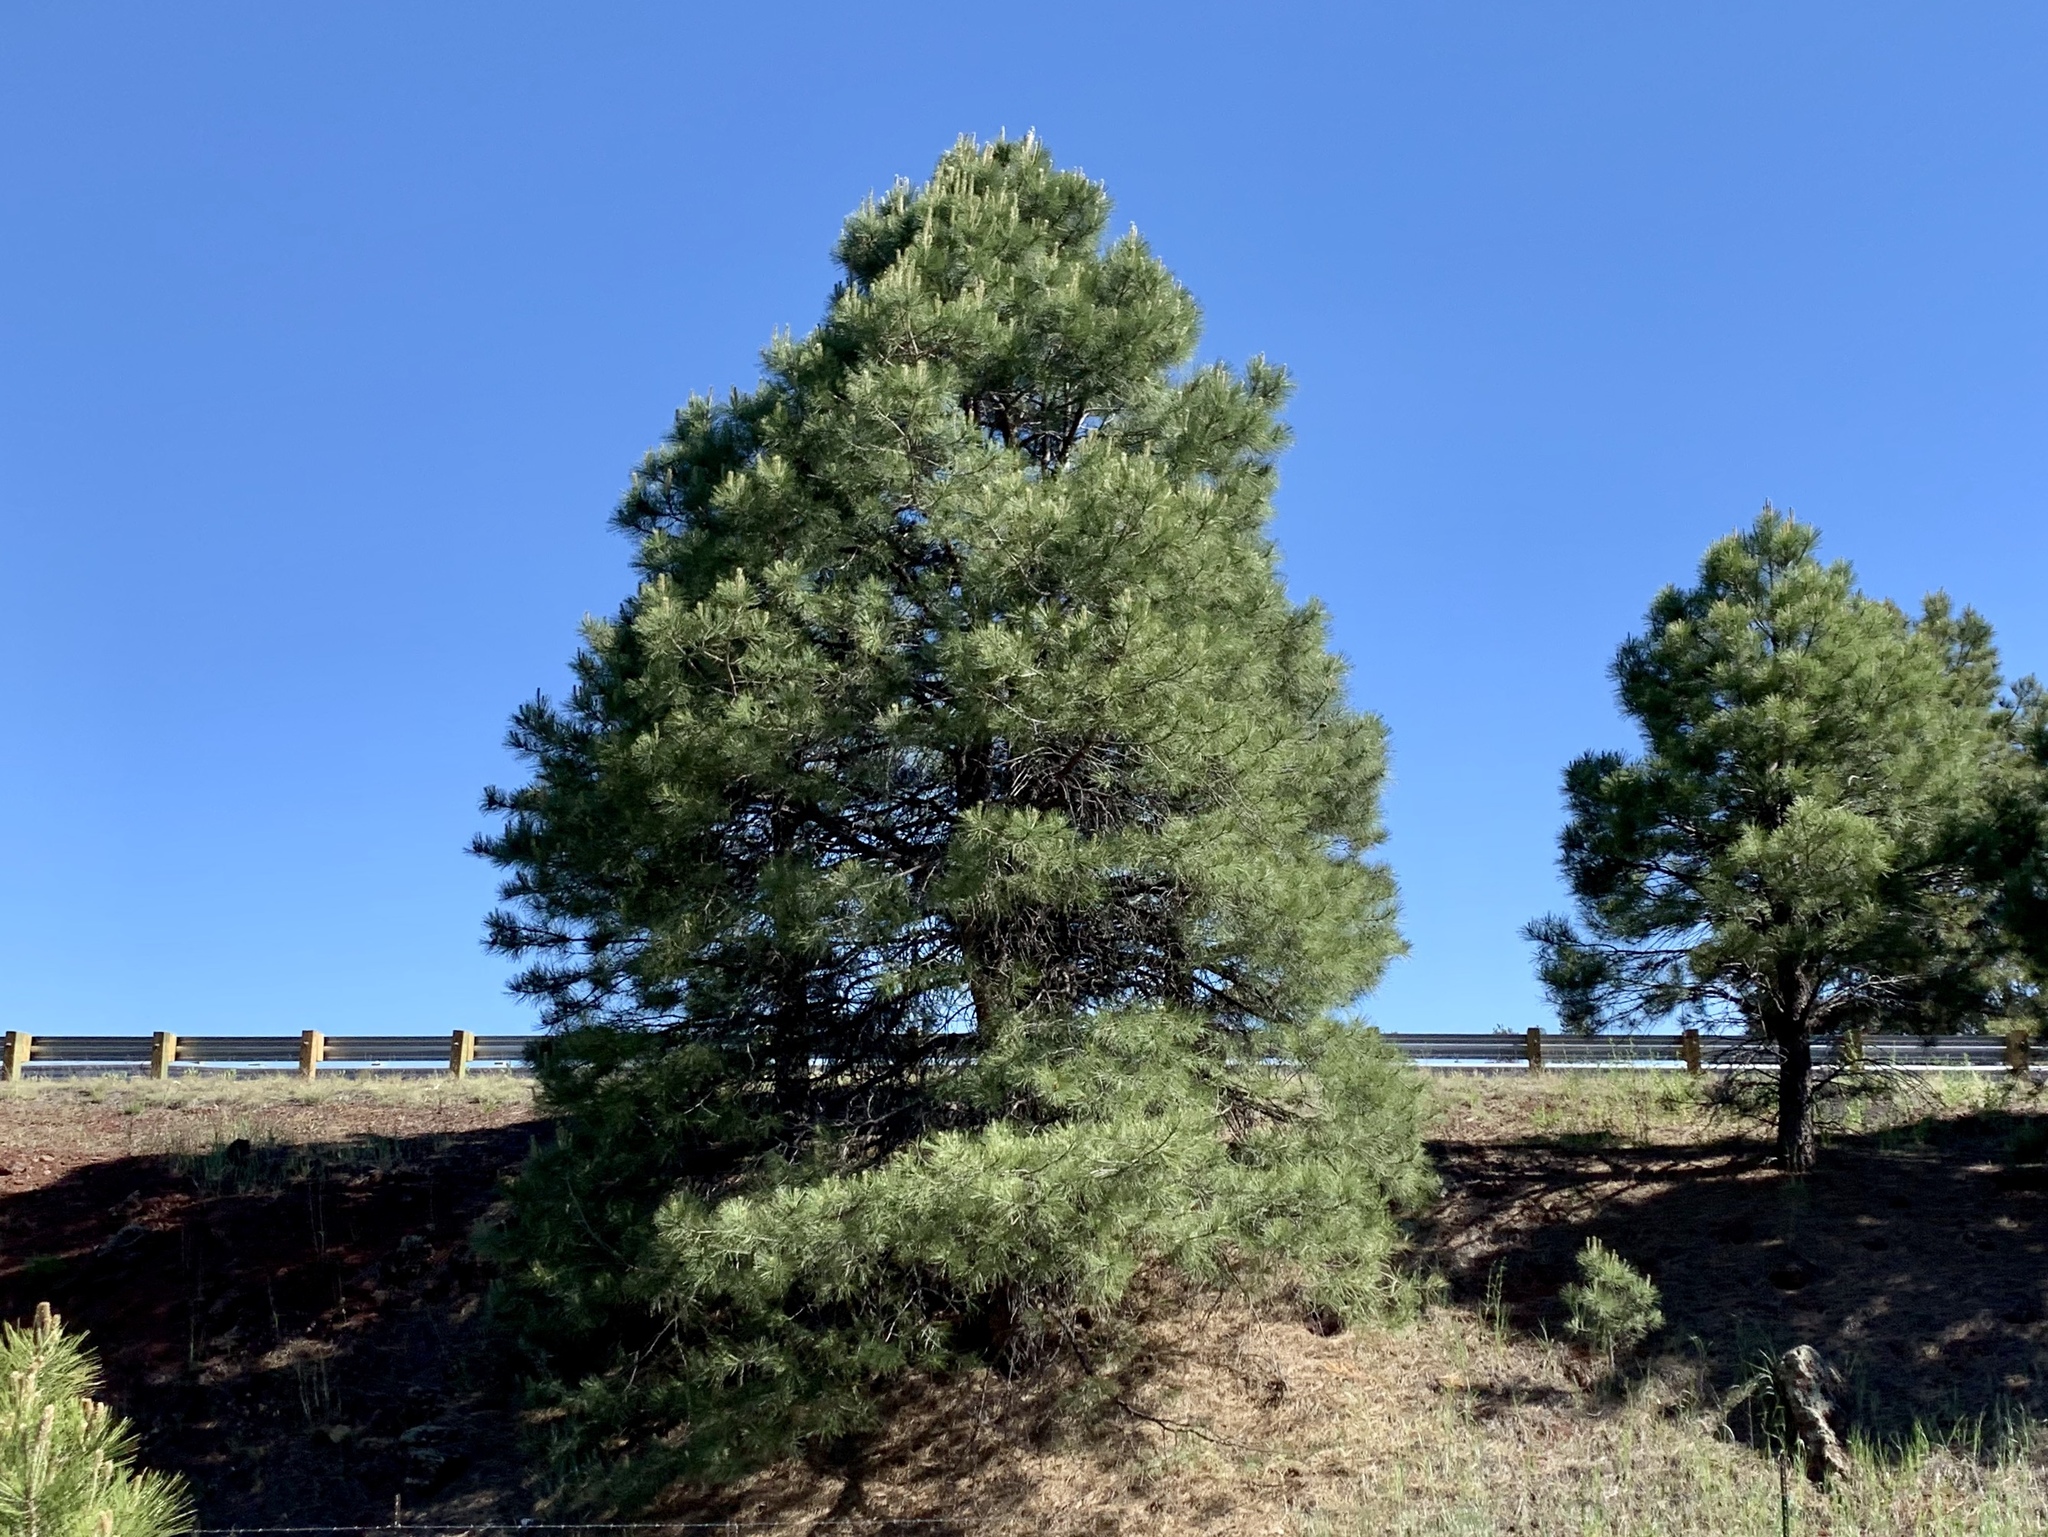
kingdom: Plantae
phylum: Tracheophyta
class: Pinopsida
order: Pinales
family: Pinaceae
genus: Pinus
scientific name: Pinus ponderosa
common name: Western yellow-pine
